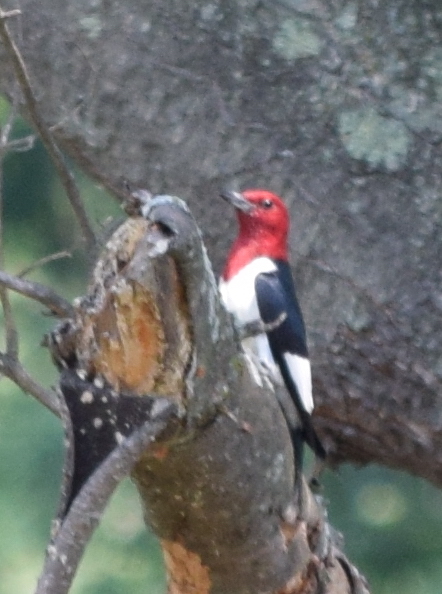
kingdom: Animalia
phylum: Chordata
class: Aves
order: Piciformes
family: Picidae
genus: Melanerpes
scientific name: Melanerpes erythrocephalus
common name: Red-headed woodpecker
